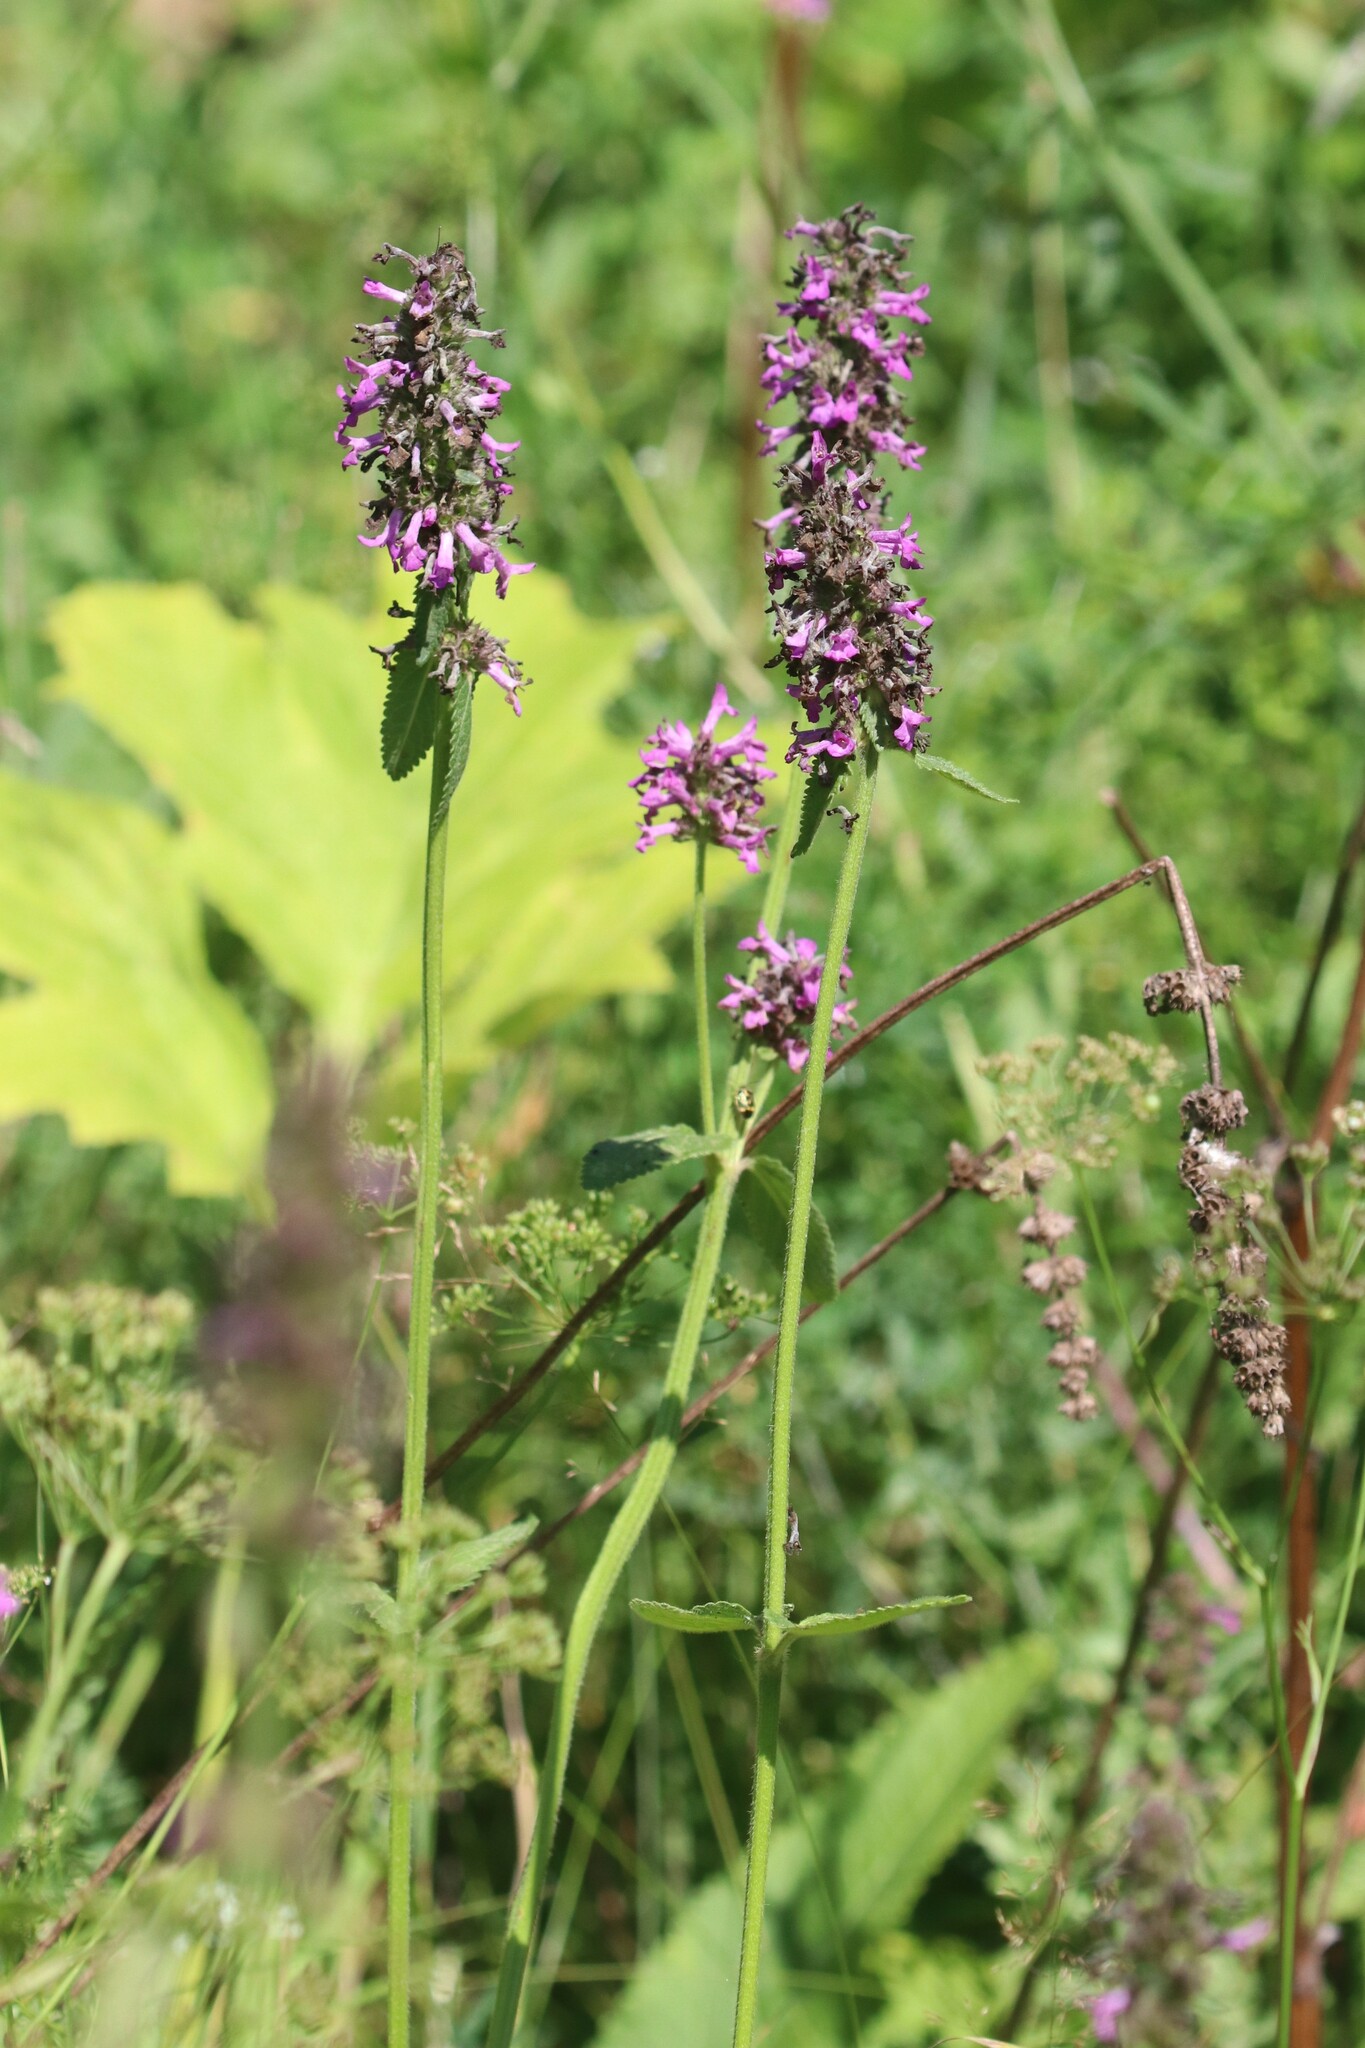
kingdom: Plantae
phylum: Tracheophyta
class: Magnoliopsida
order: Lamiales
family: Lamiaceae
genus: Betonica
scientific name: Betonica officinalis
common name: Bishop's-wort
